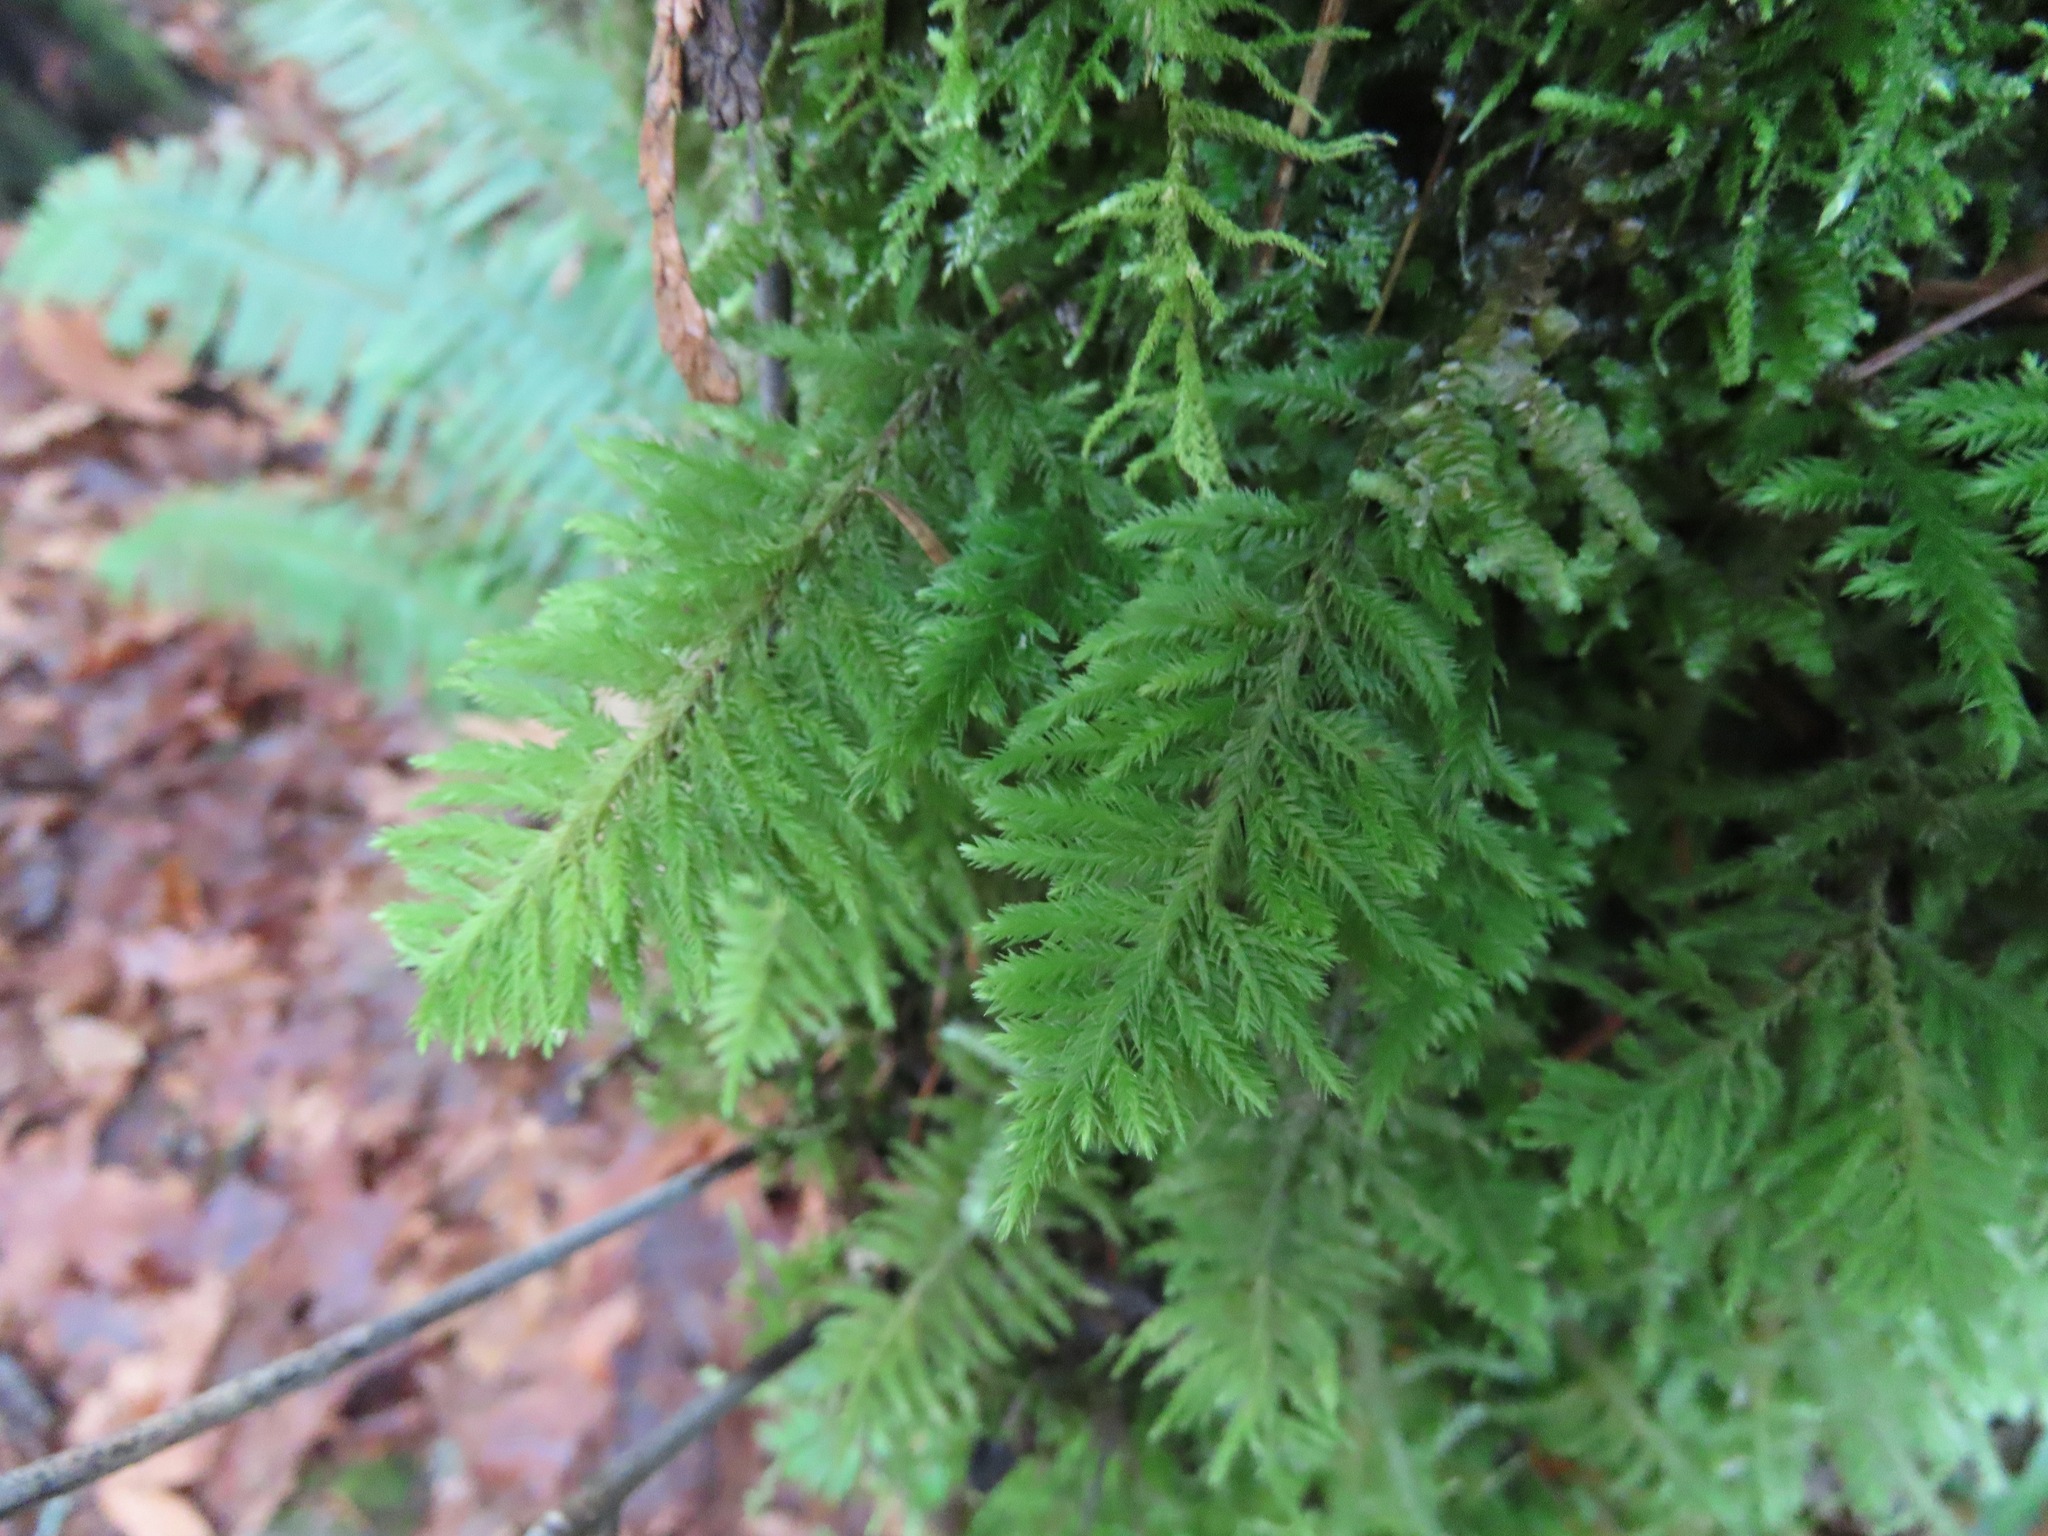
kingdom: Plantae
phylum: Bryophyta
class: Bryopsida
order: Hypnales
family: Cryphaeaceae
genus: Dendroalsia
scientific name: Dendroalsia abietina
